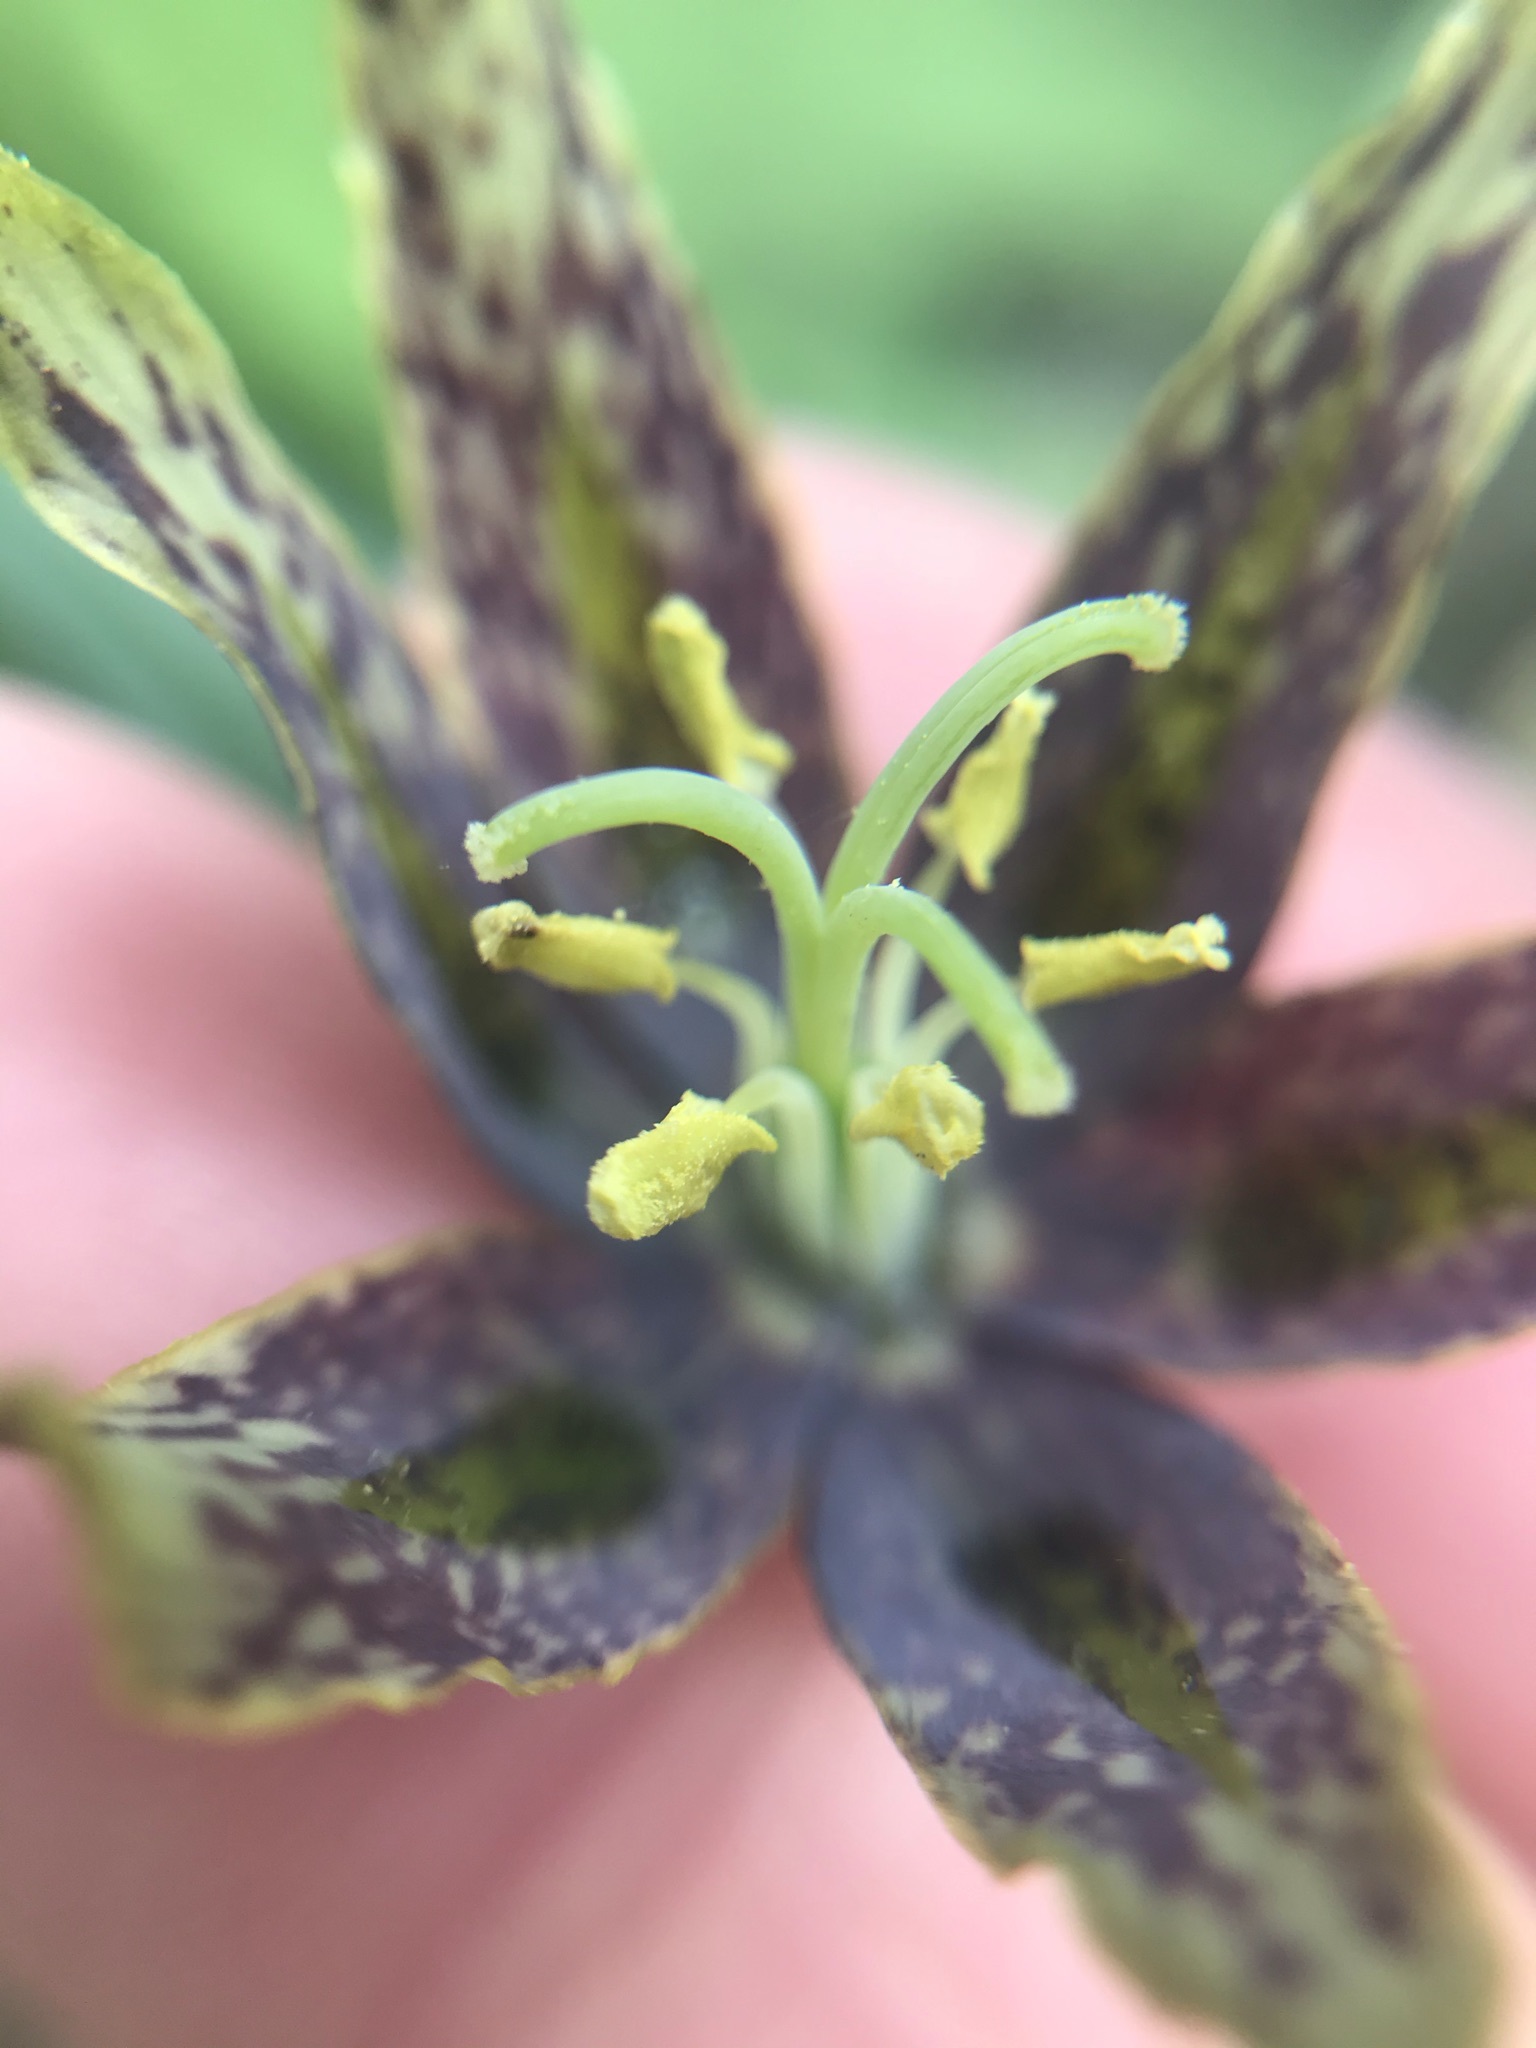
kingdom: Plantae
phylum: Tracheophyta
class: Liliopsida
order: Liliales
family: Liliaceae
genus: Fritillaria
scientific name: Fritillaria affinis
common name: Ojai fritillary
